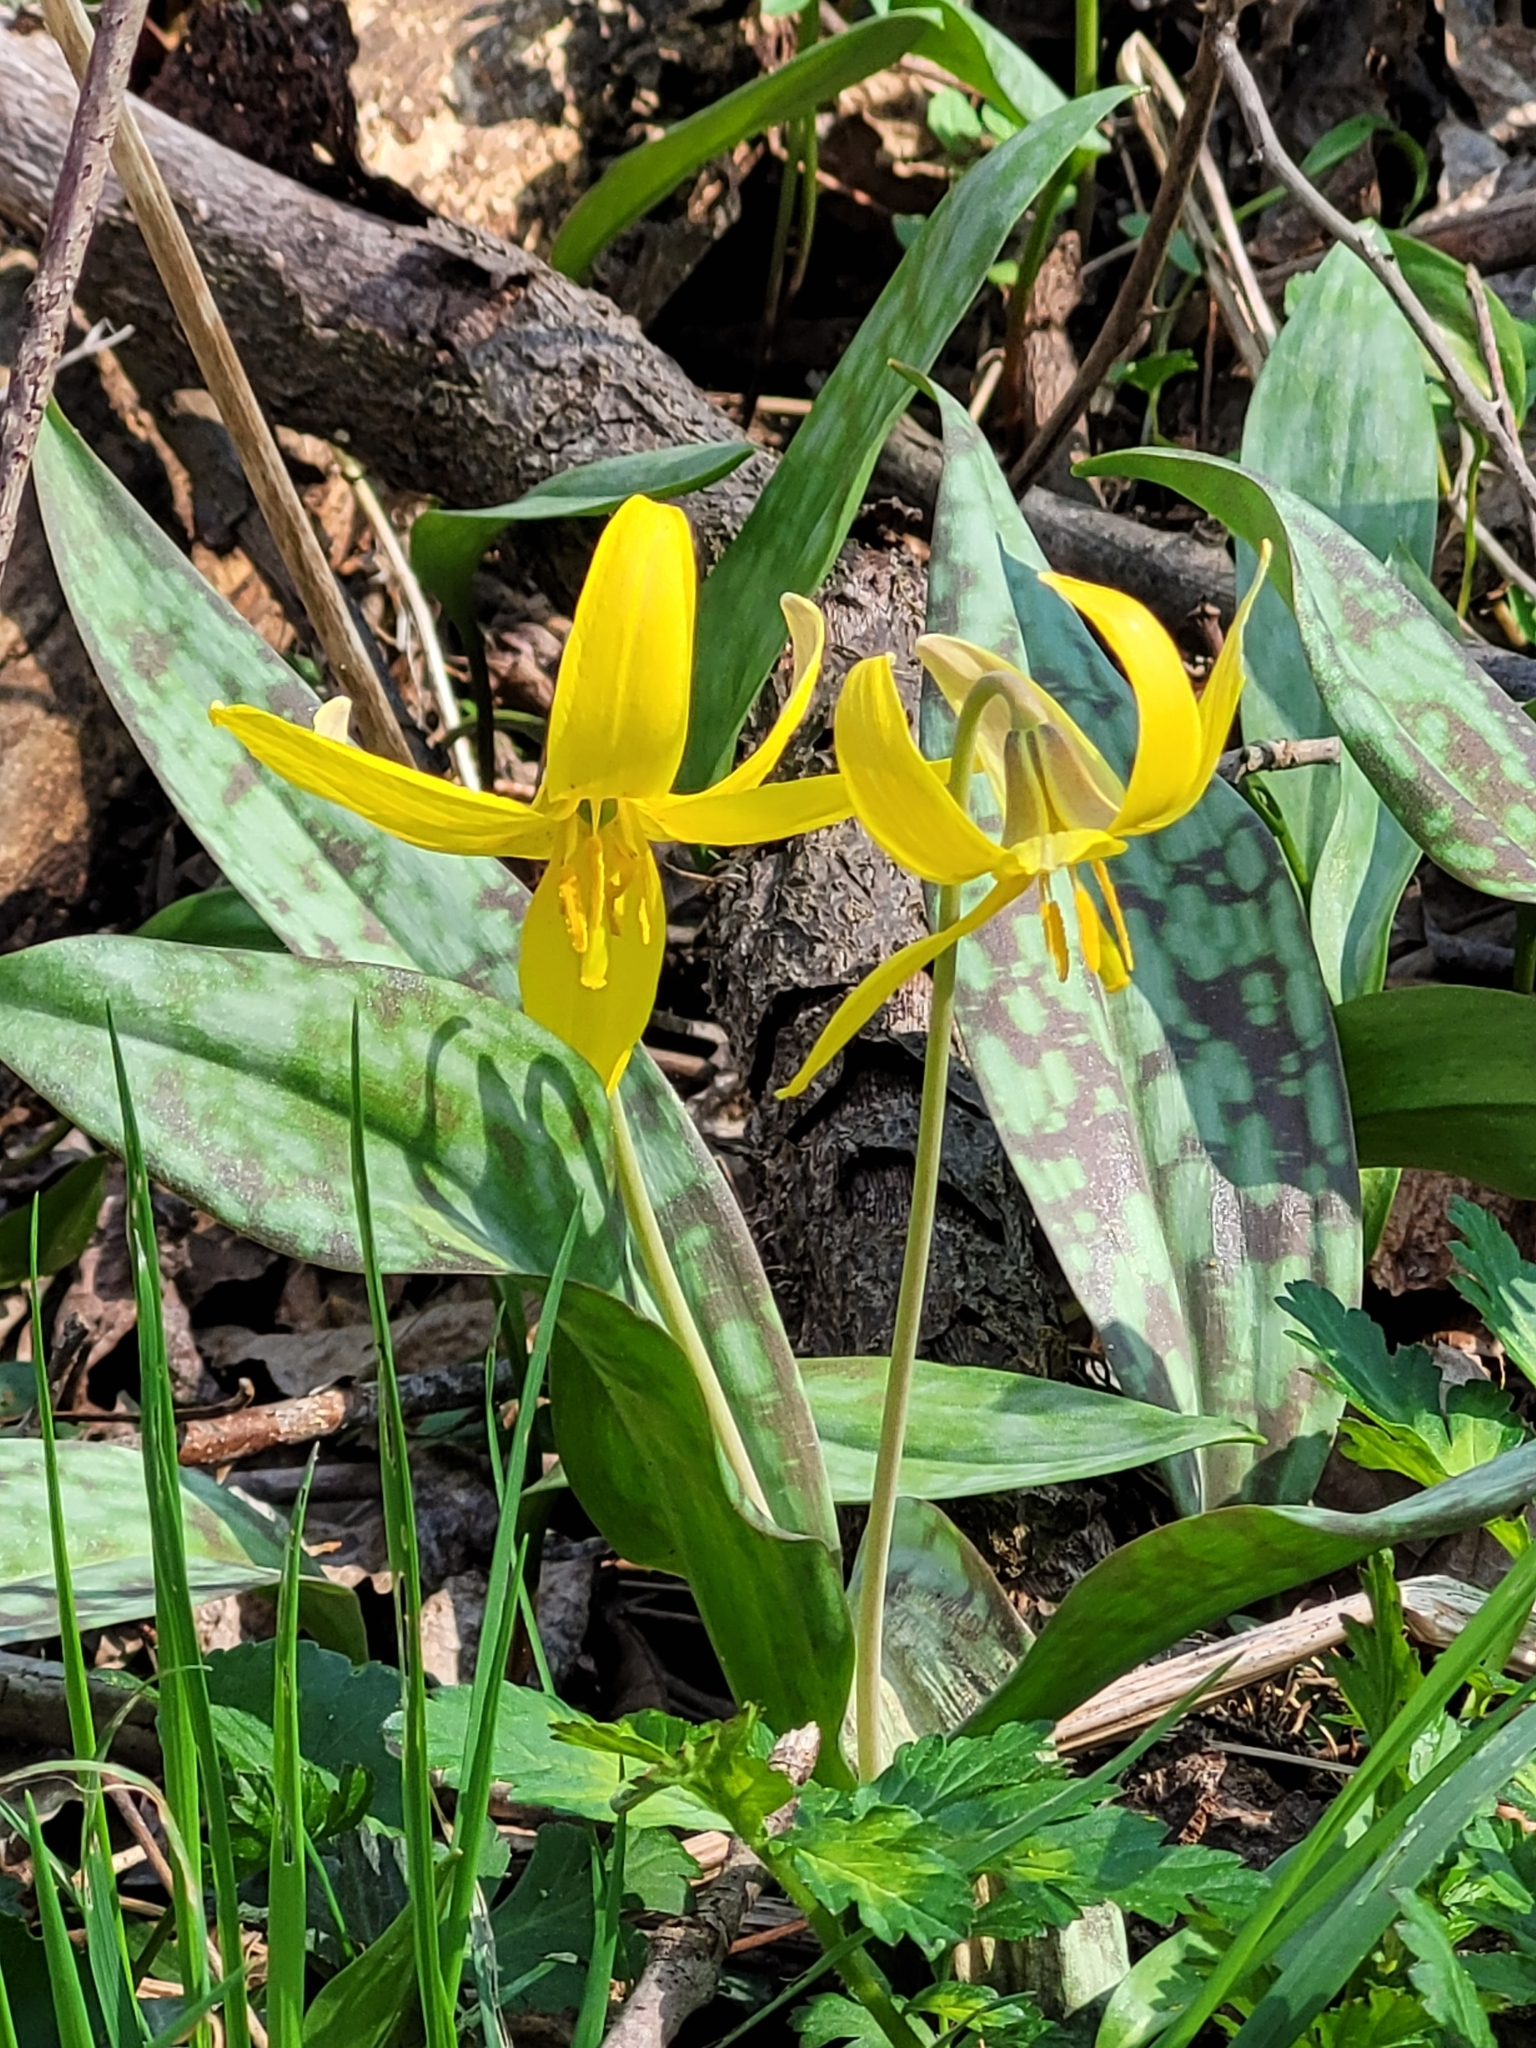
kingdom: Plantae
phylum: Tracheophyta
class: Liliopsida
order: Liliales
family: Liliaceae
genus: Erythronium
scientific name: Erythronium americanum
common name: Yellow adder's-tongue
